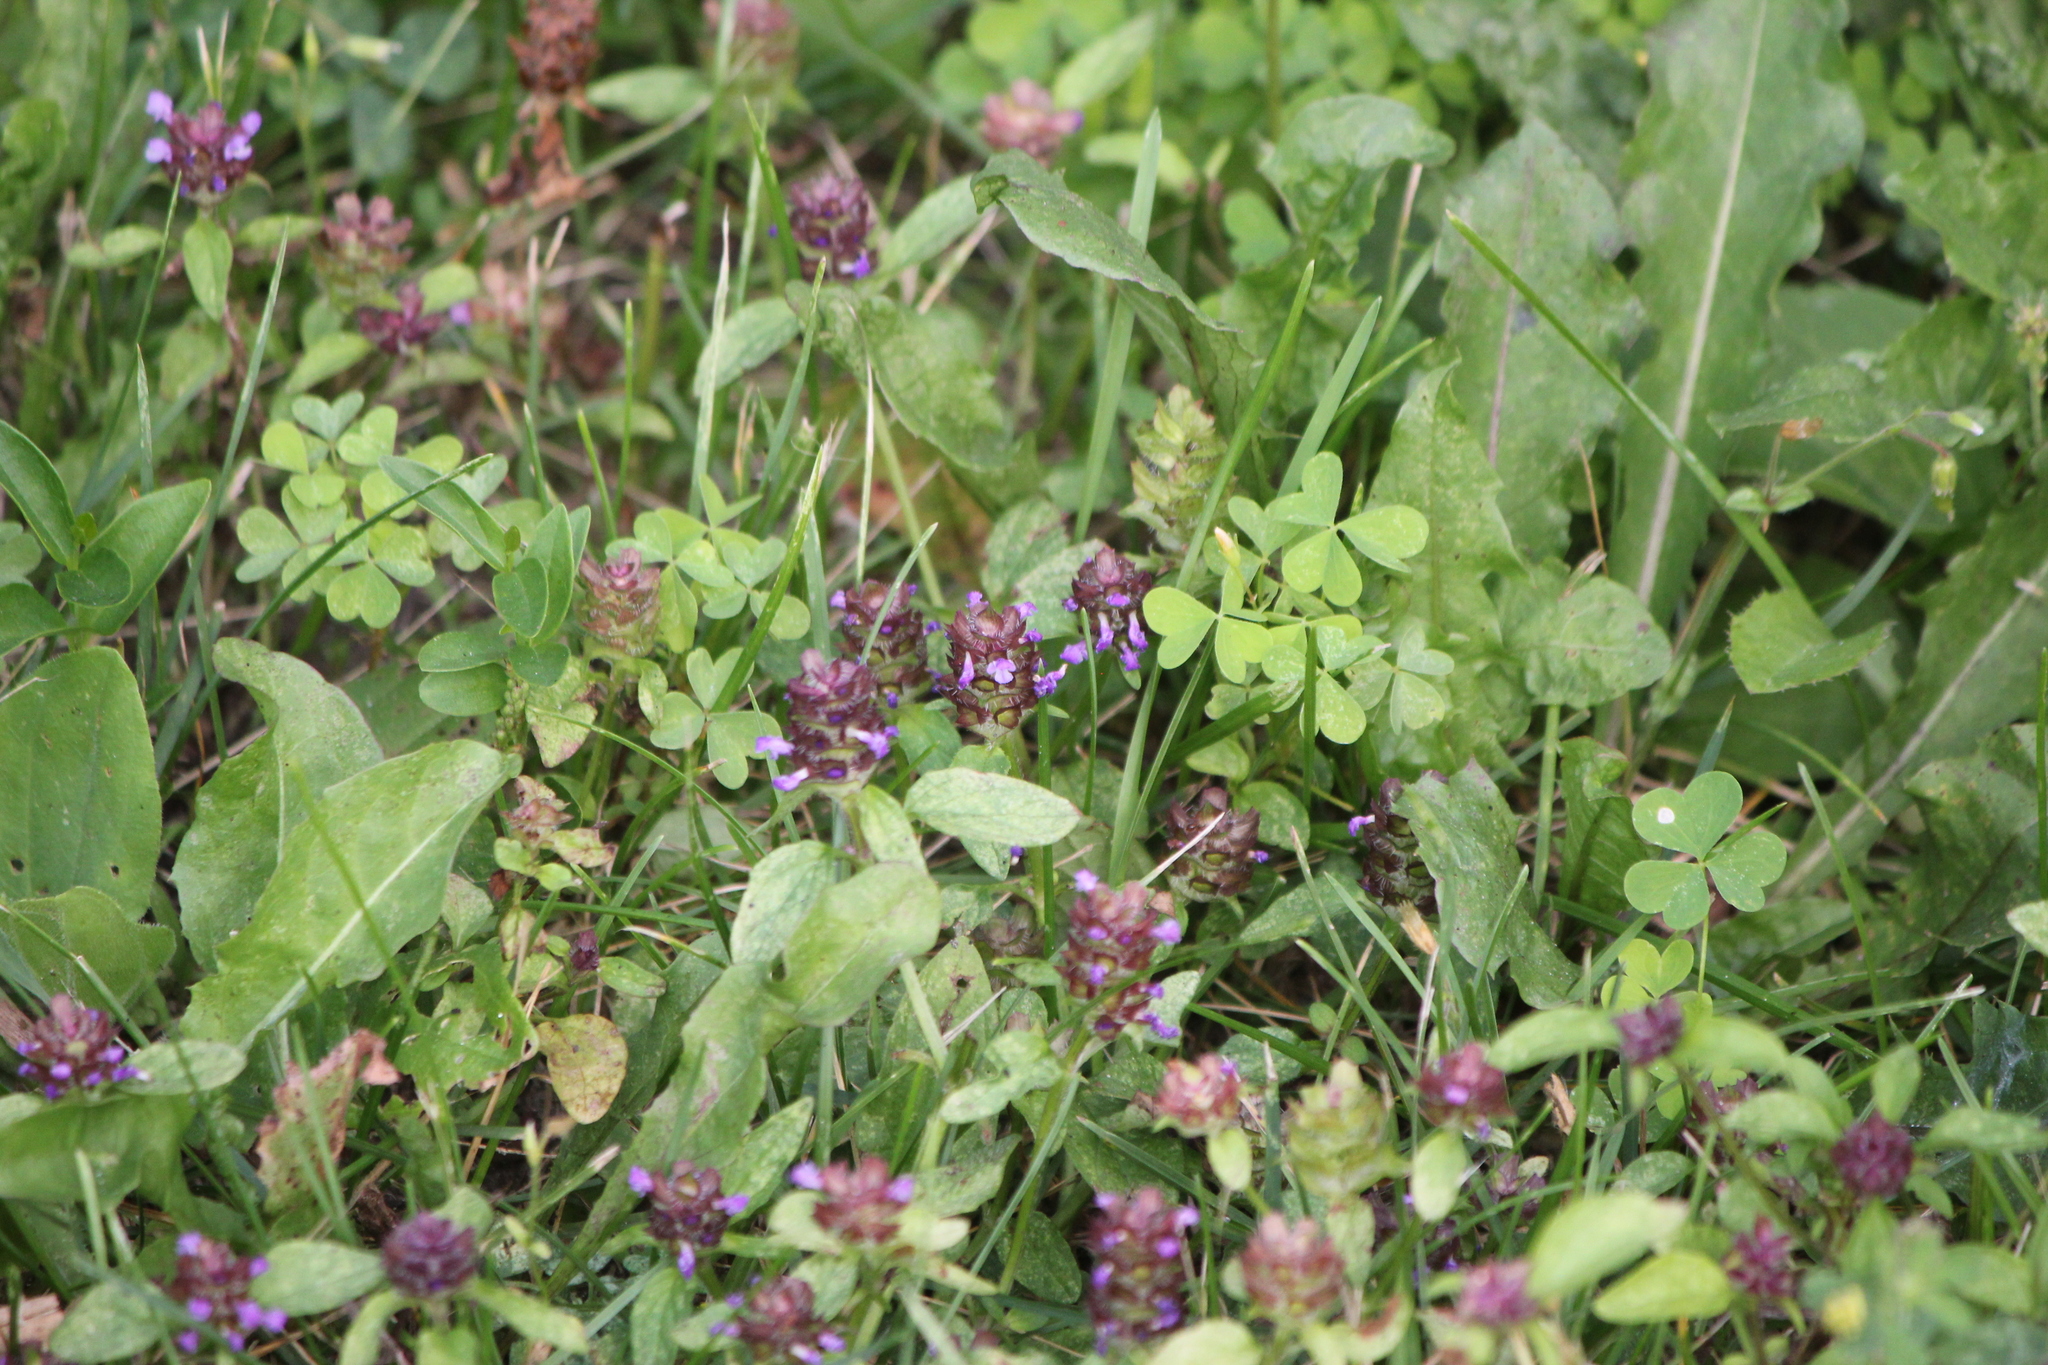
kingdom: Plantae
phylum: Tracheophyta
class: Magnoliopsida
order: Lamiales
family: Lamiaceae
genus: Prunella
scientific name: Prunella vulgaris
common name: Heal-all
